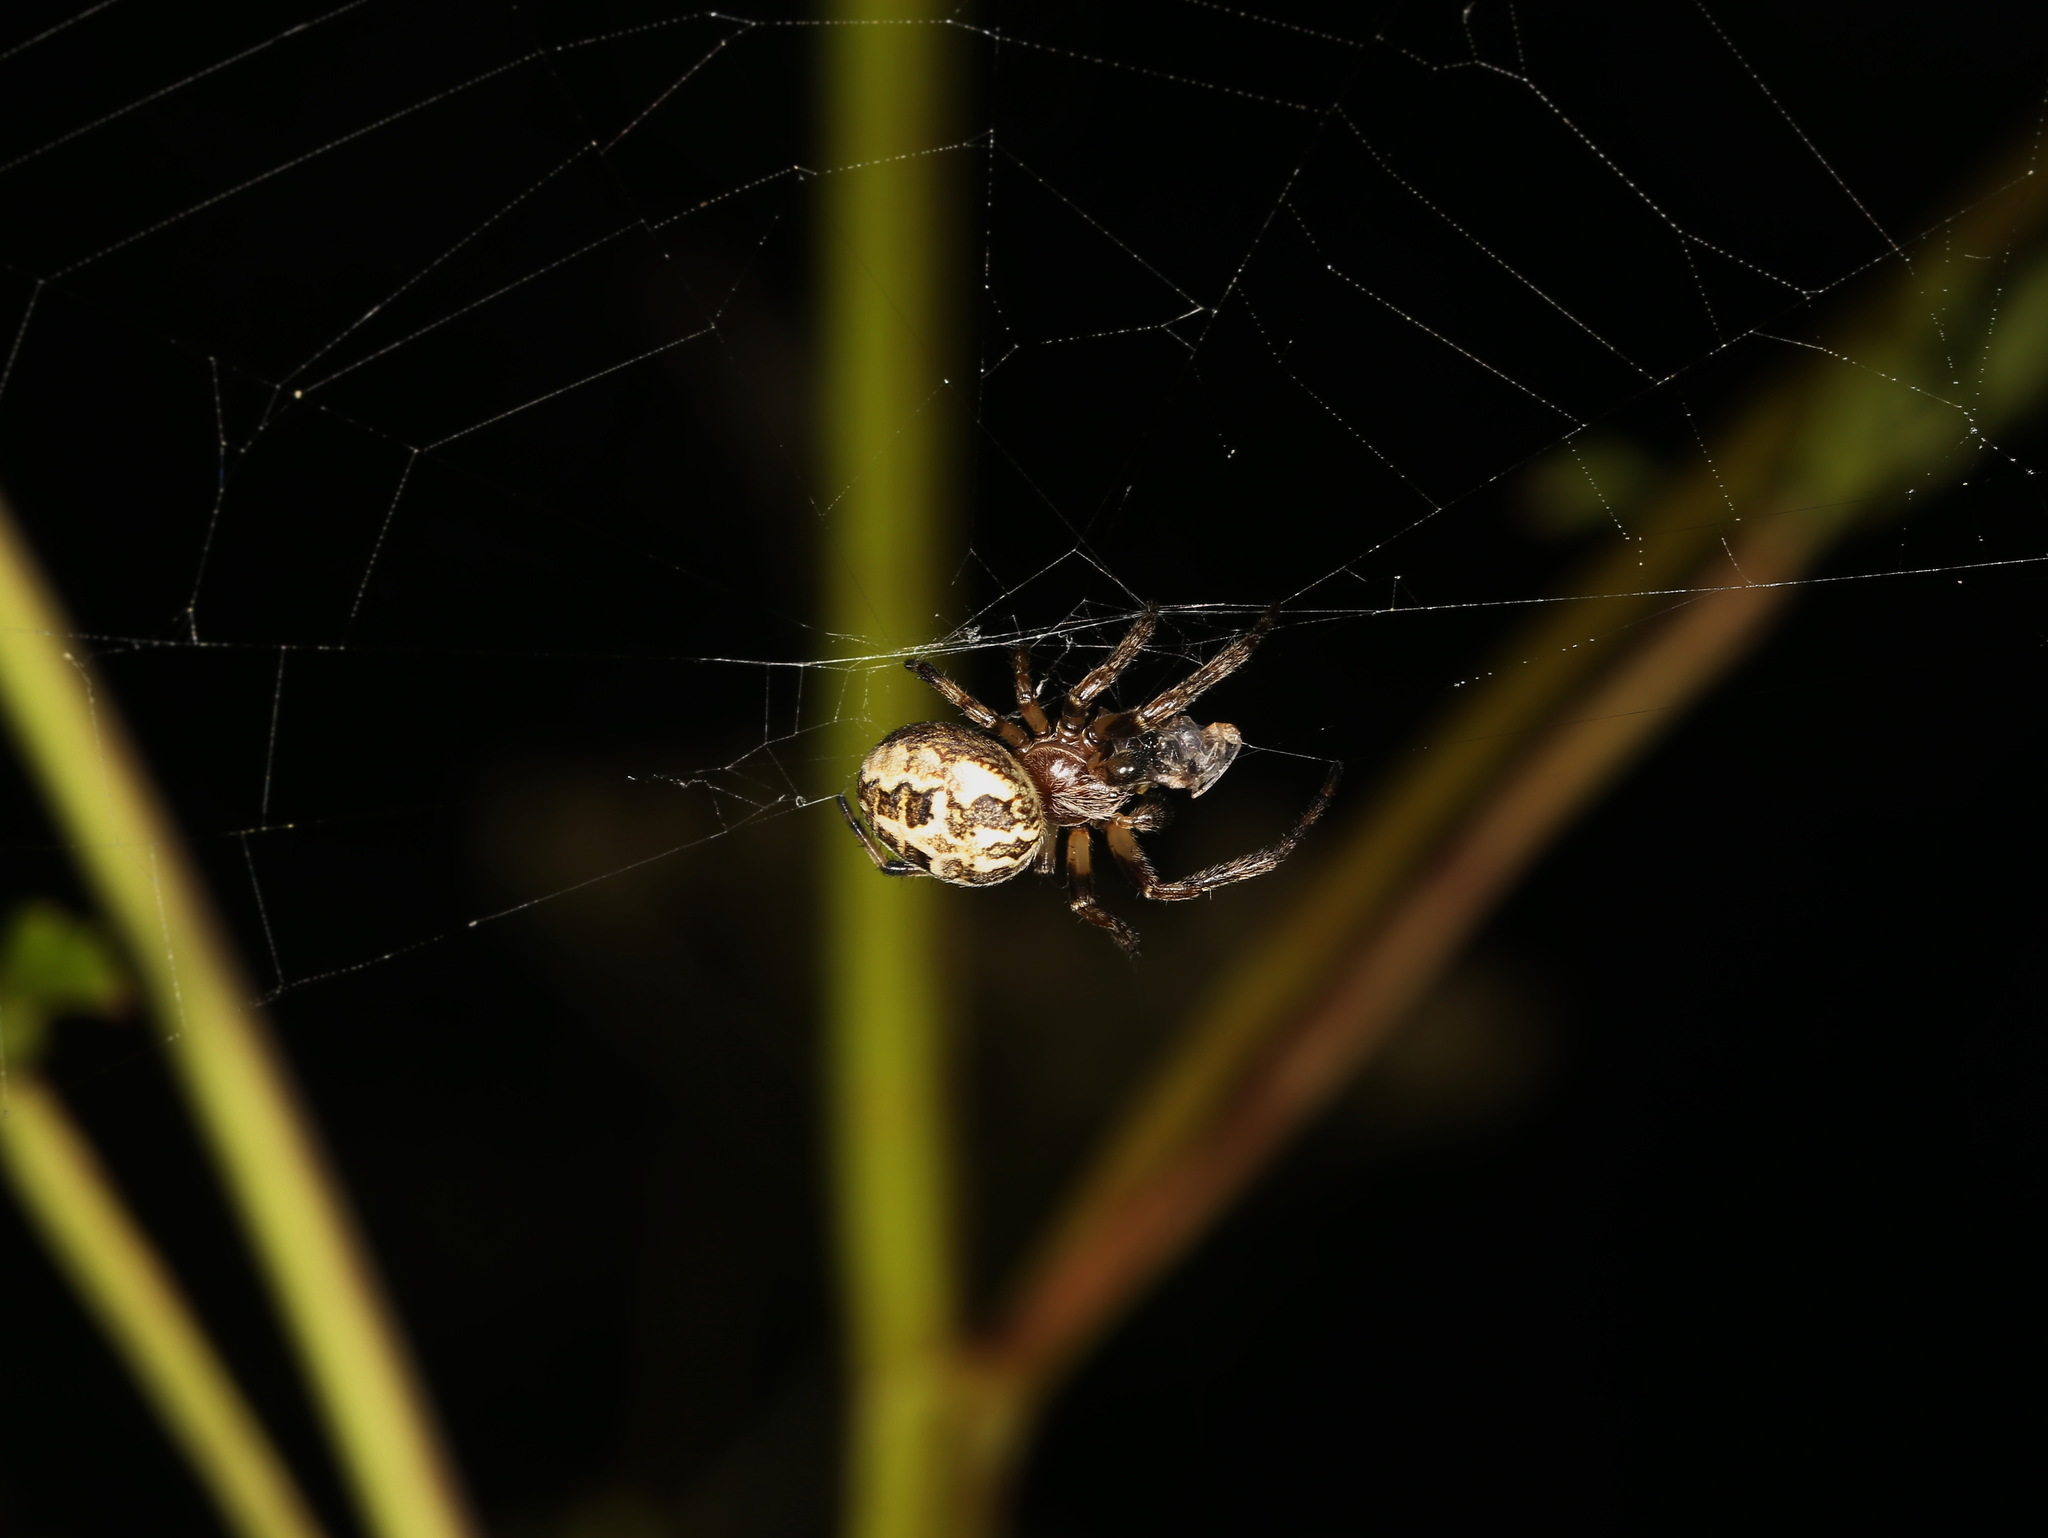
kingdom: Animalia
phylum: Arthropoda
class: Arachnida
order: Araneae
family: Araneidae
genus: Araneus
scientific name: Araneus diadematus
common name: Cross orbweaver
